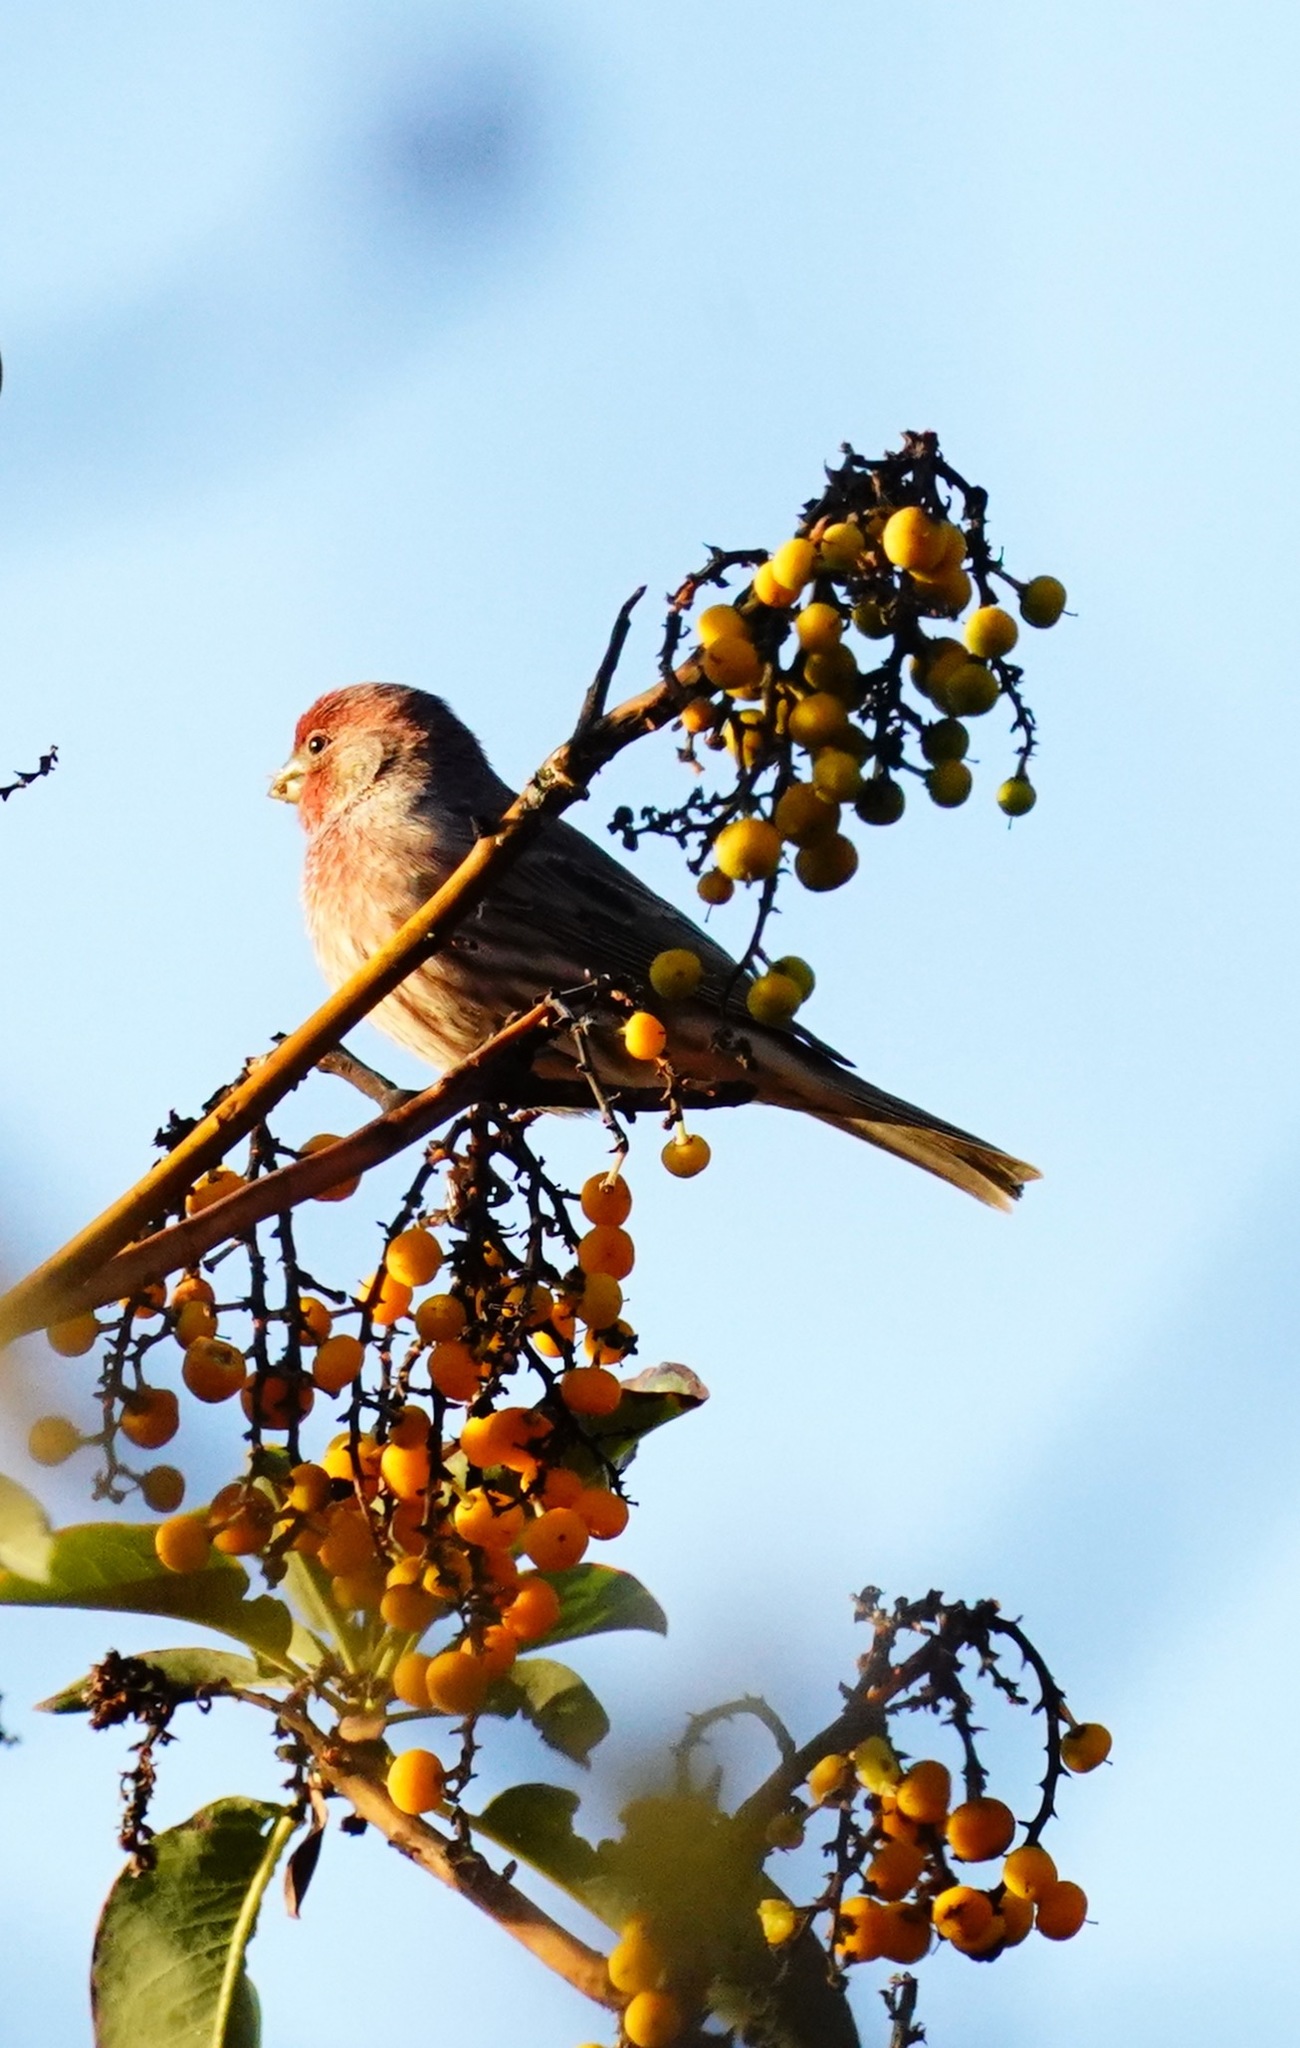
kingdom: Animalia
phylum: Chordata
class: Aves
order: Passeriformes
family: Fringillidae
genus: Haemorhous
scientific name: Haemorhous mexicanus
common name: House finch
